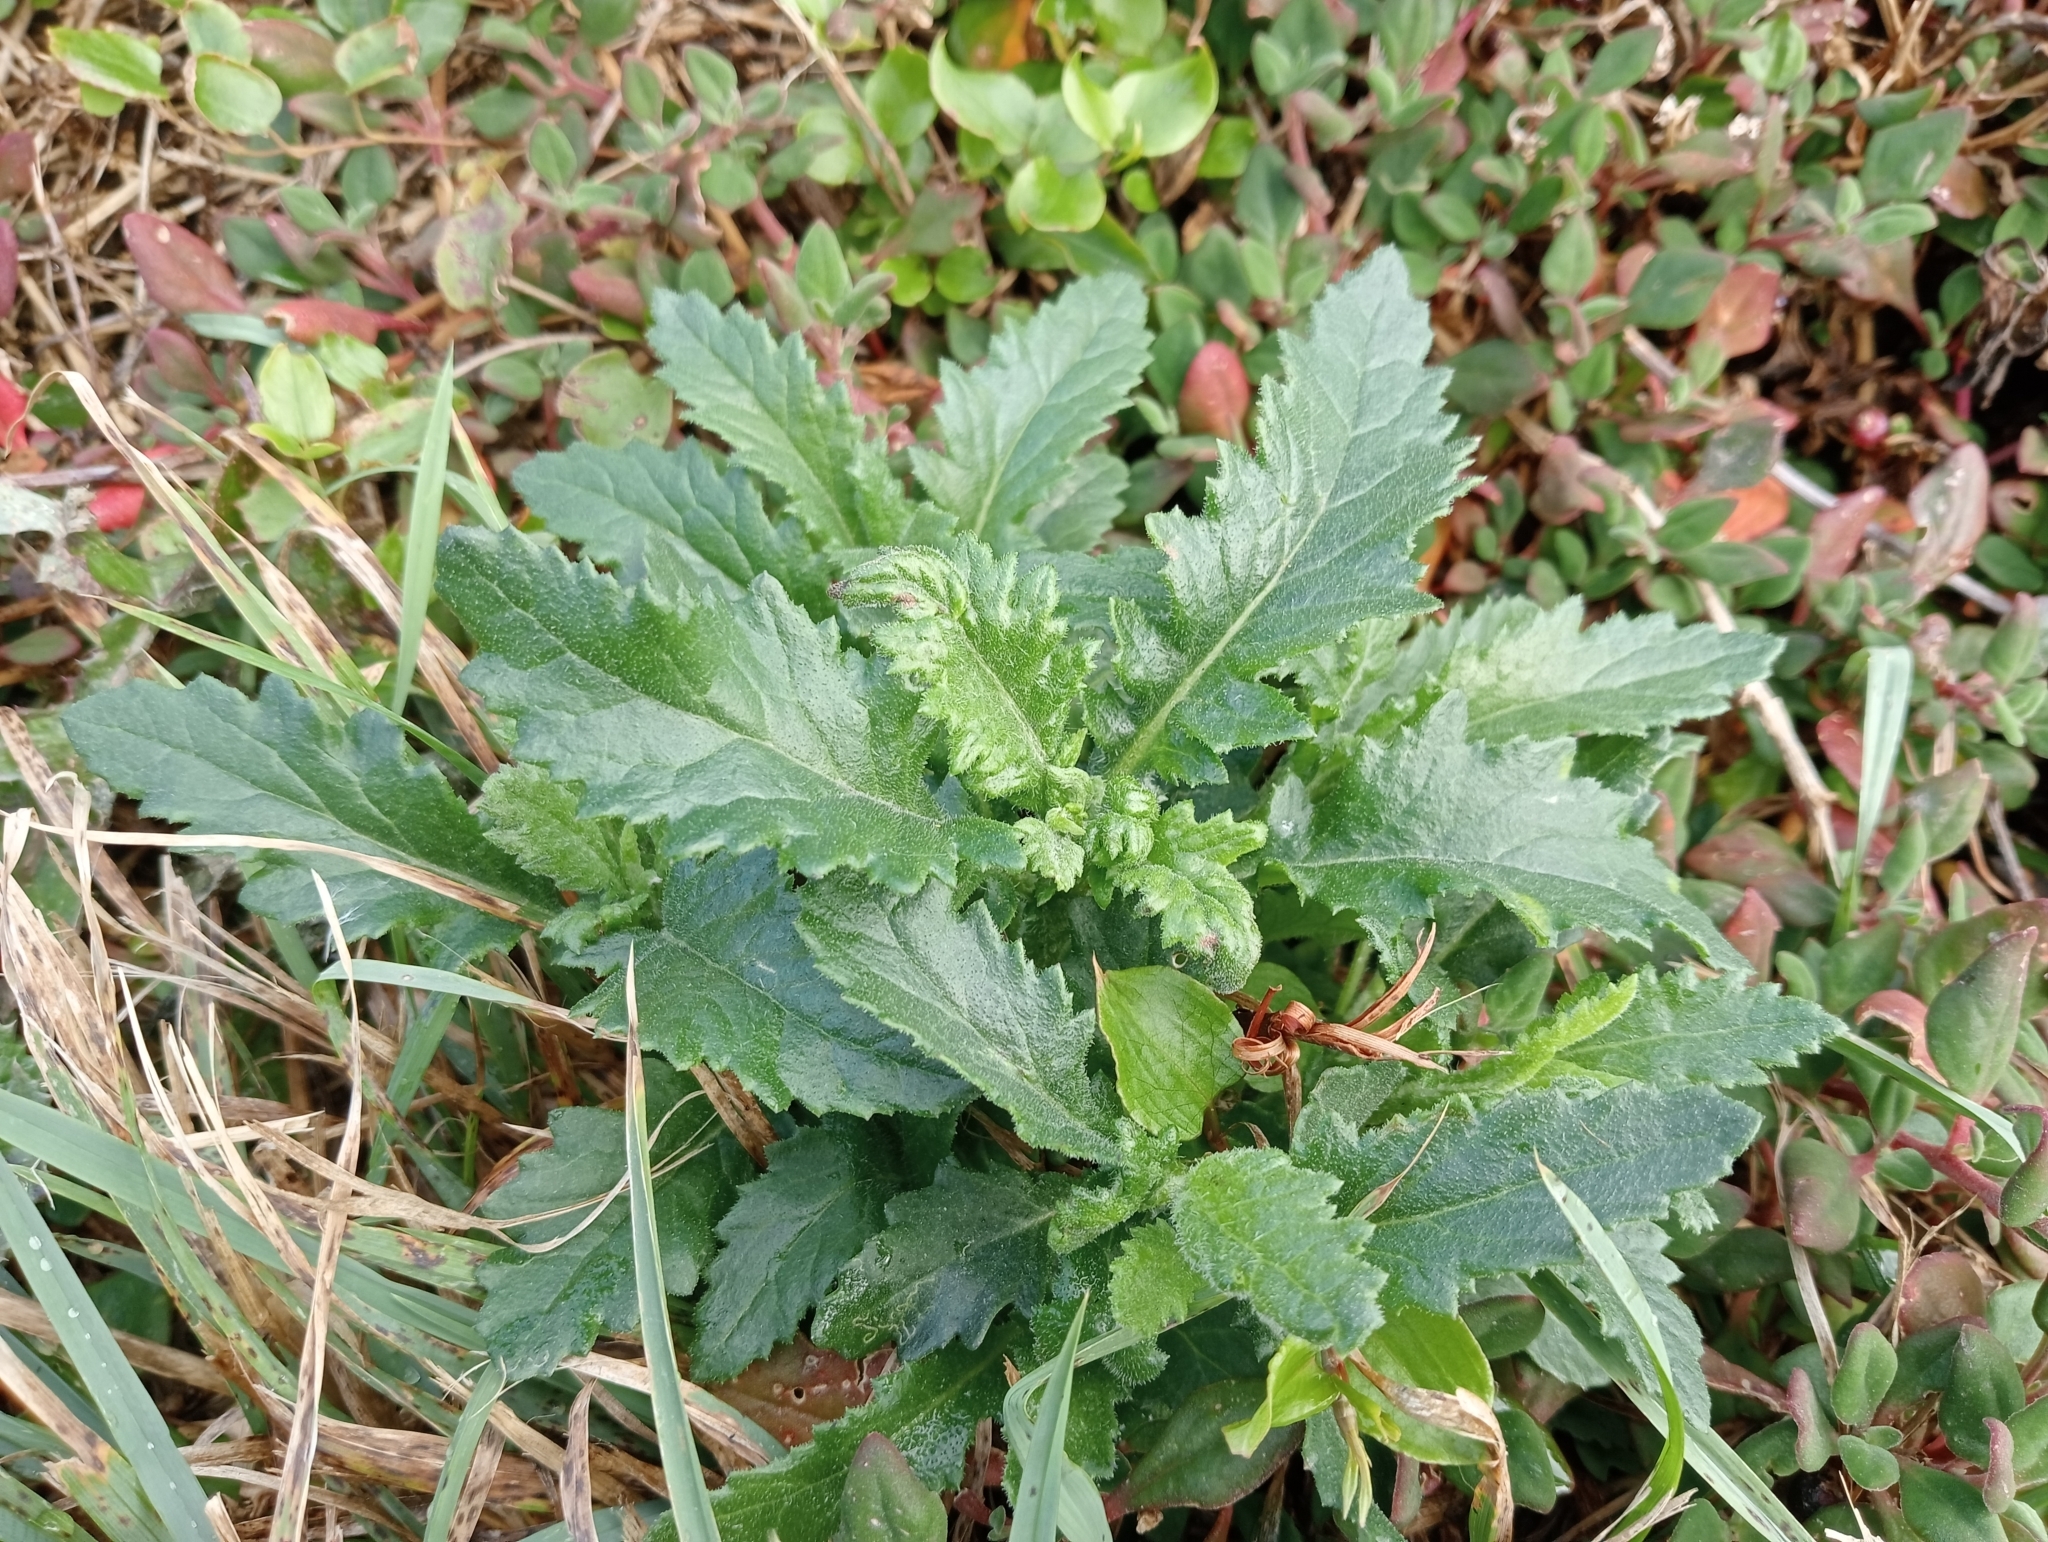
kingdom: Plantae
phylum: Tracheophyta
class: Magnoliopsida
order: Asterales
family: Asteraceae
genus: Senecio
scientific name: Senecio biserratus
